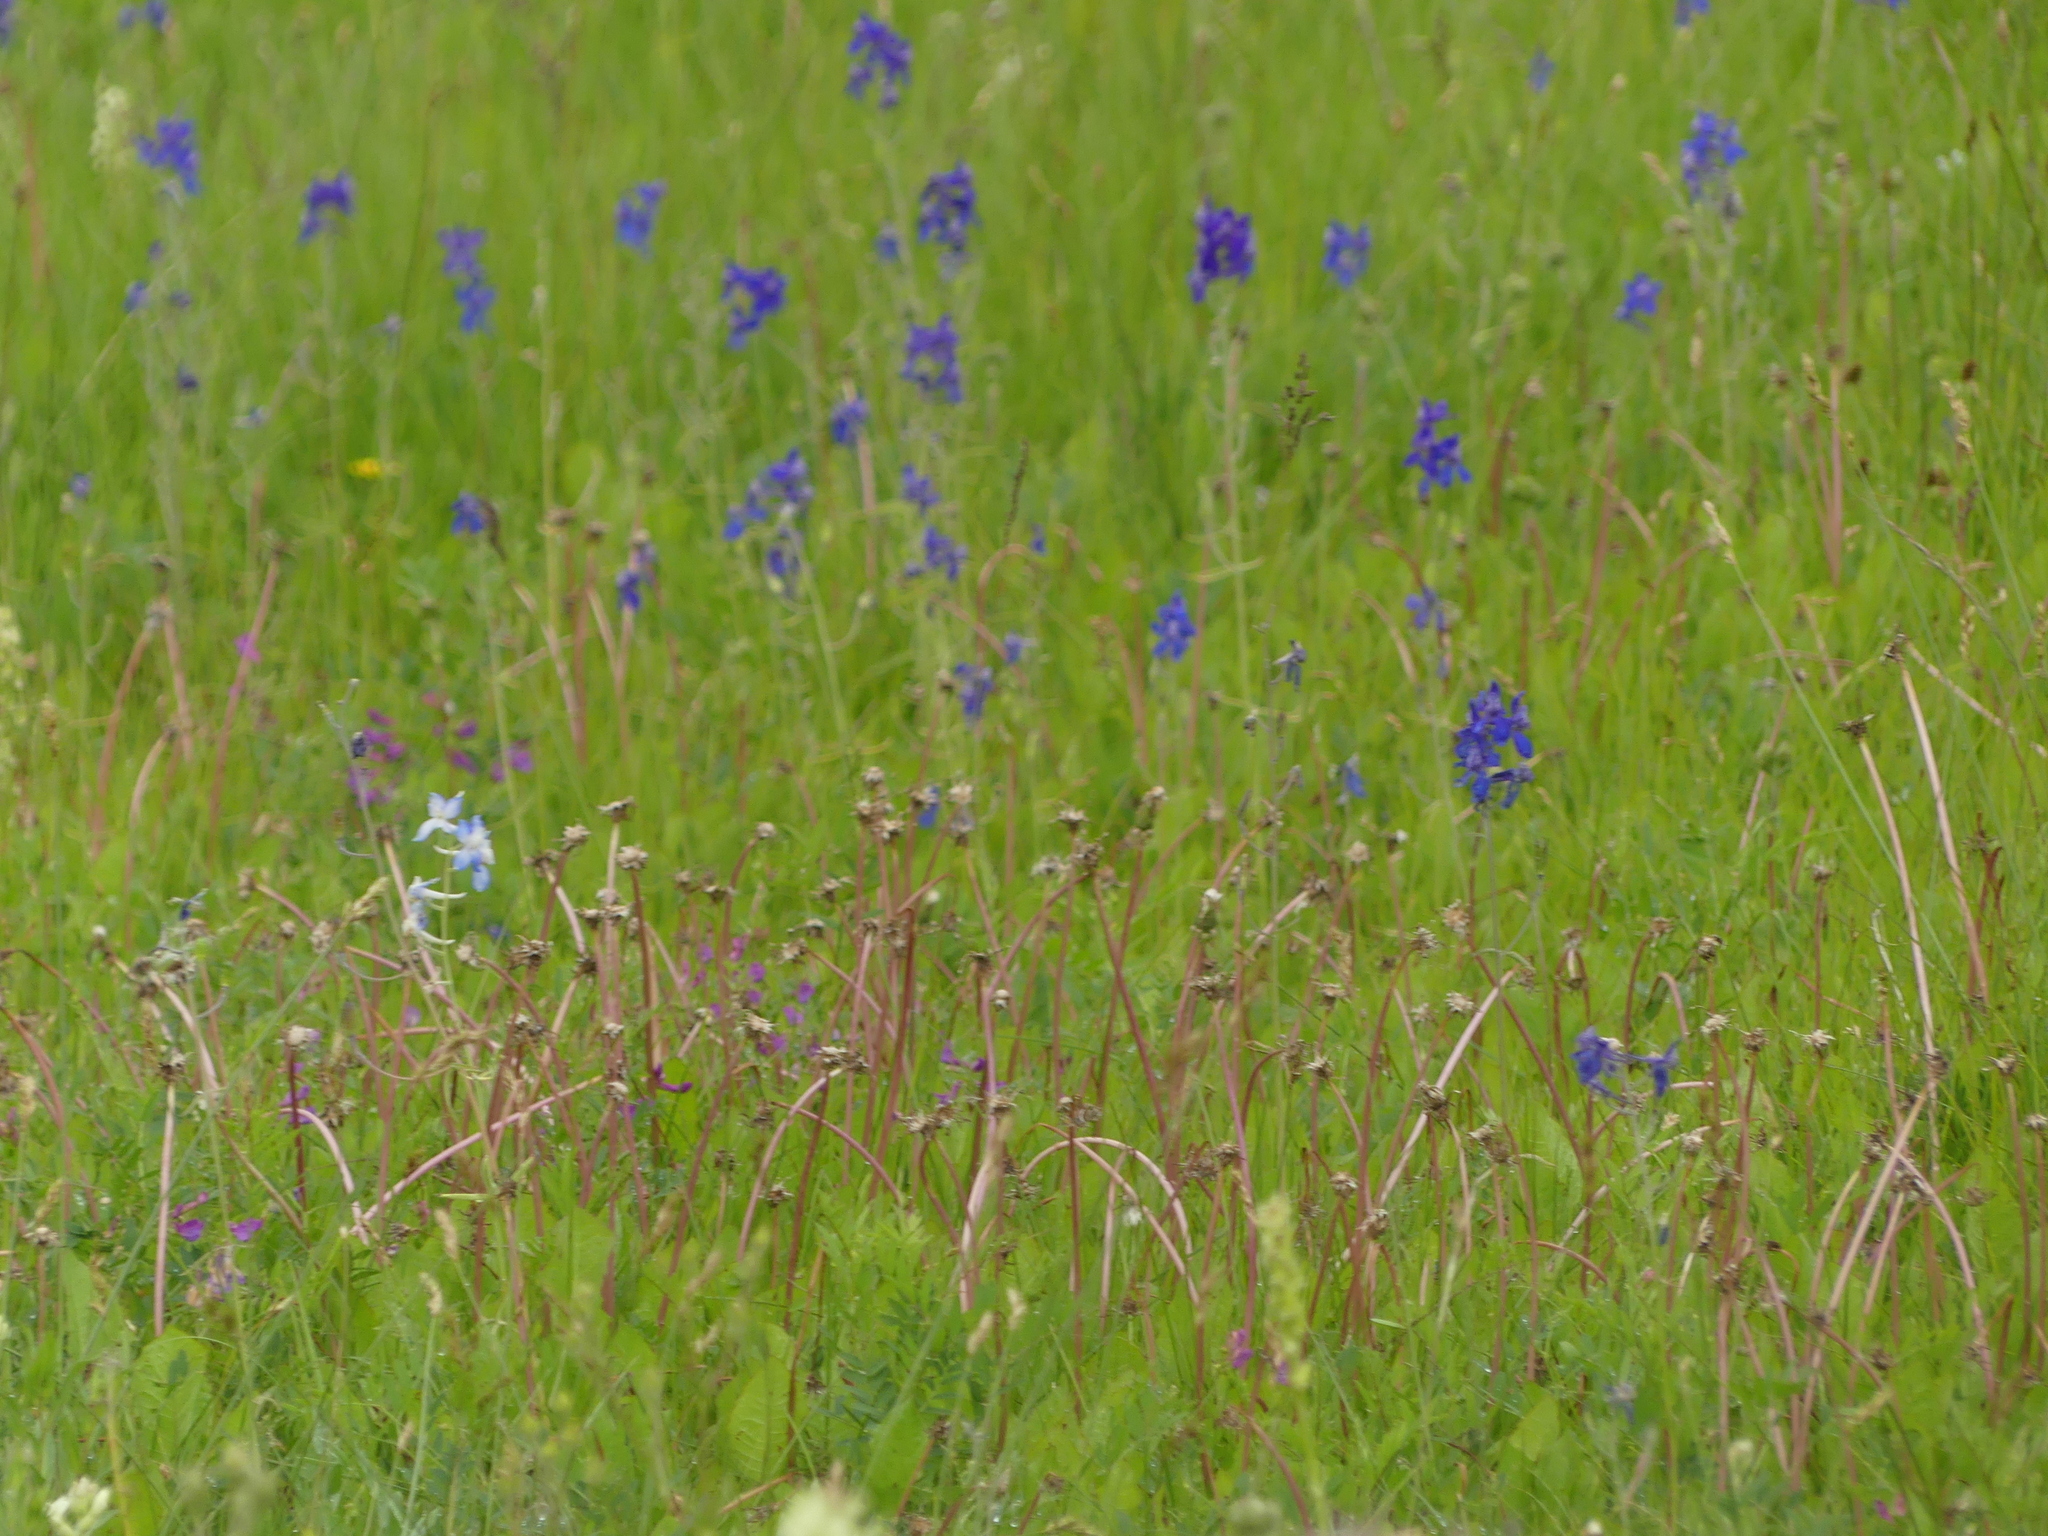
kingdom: Plantae
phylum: Tracheophyta
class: Magnoliopsida
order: Ranunculales
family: Ranunculaceae
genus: Delphinium
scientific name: Delphinium nuttallianum
